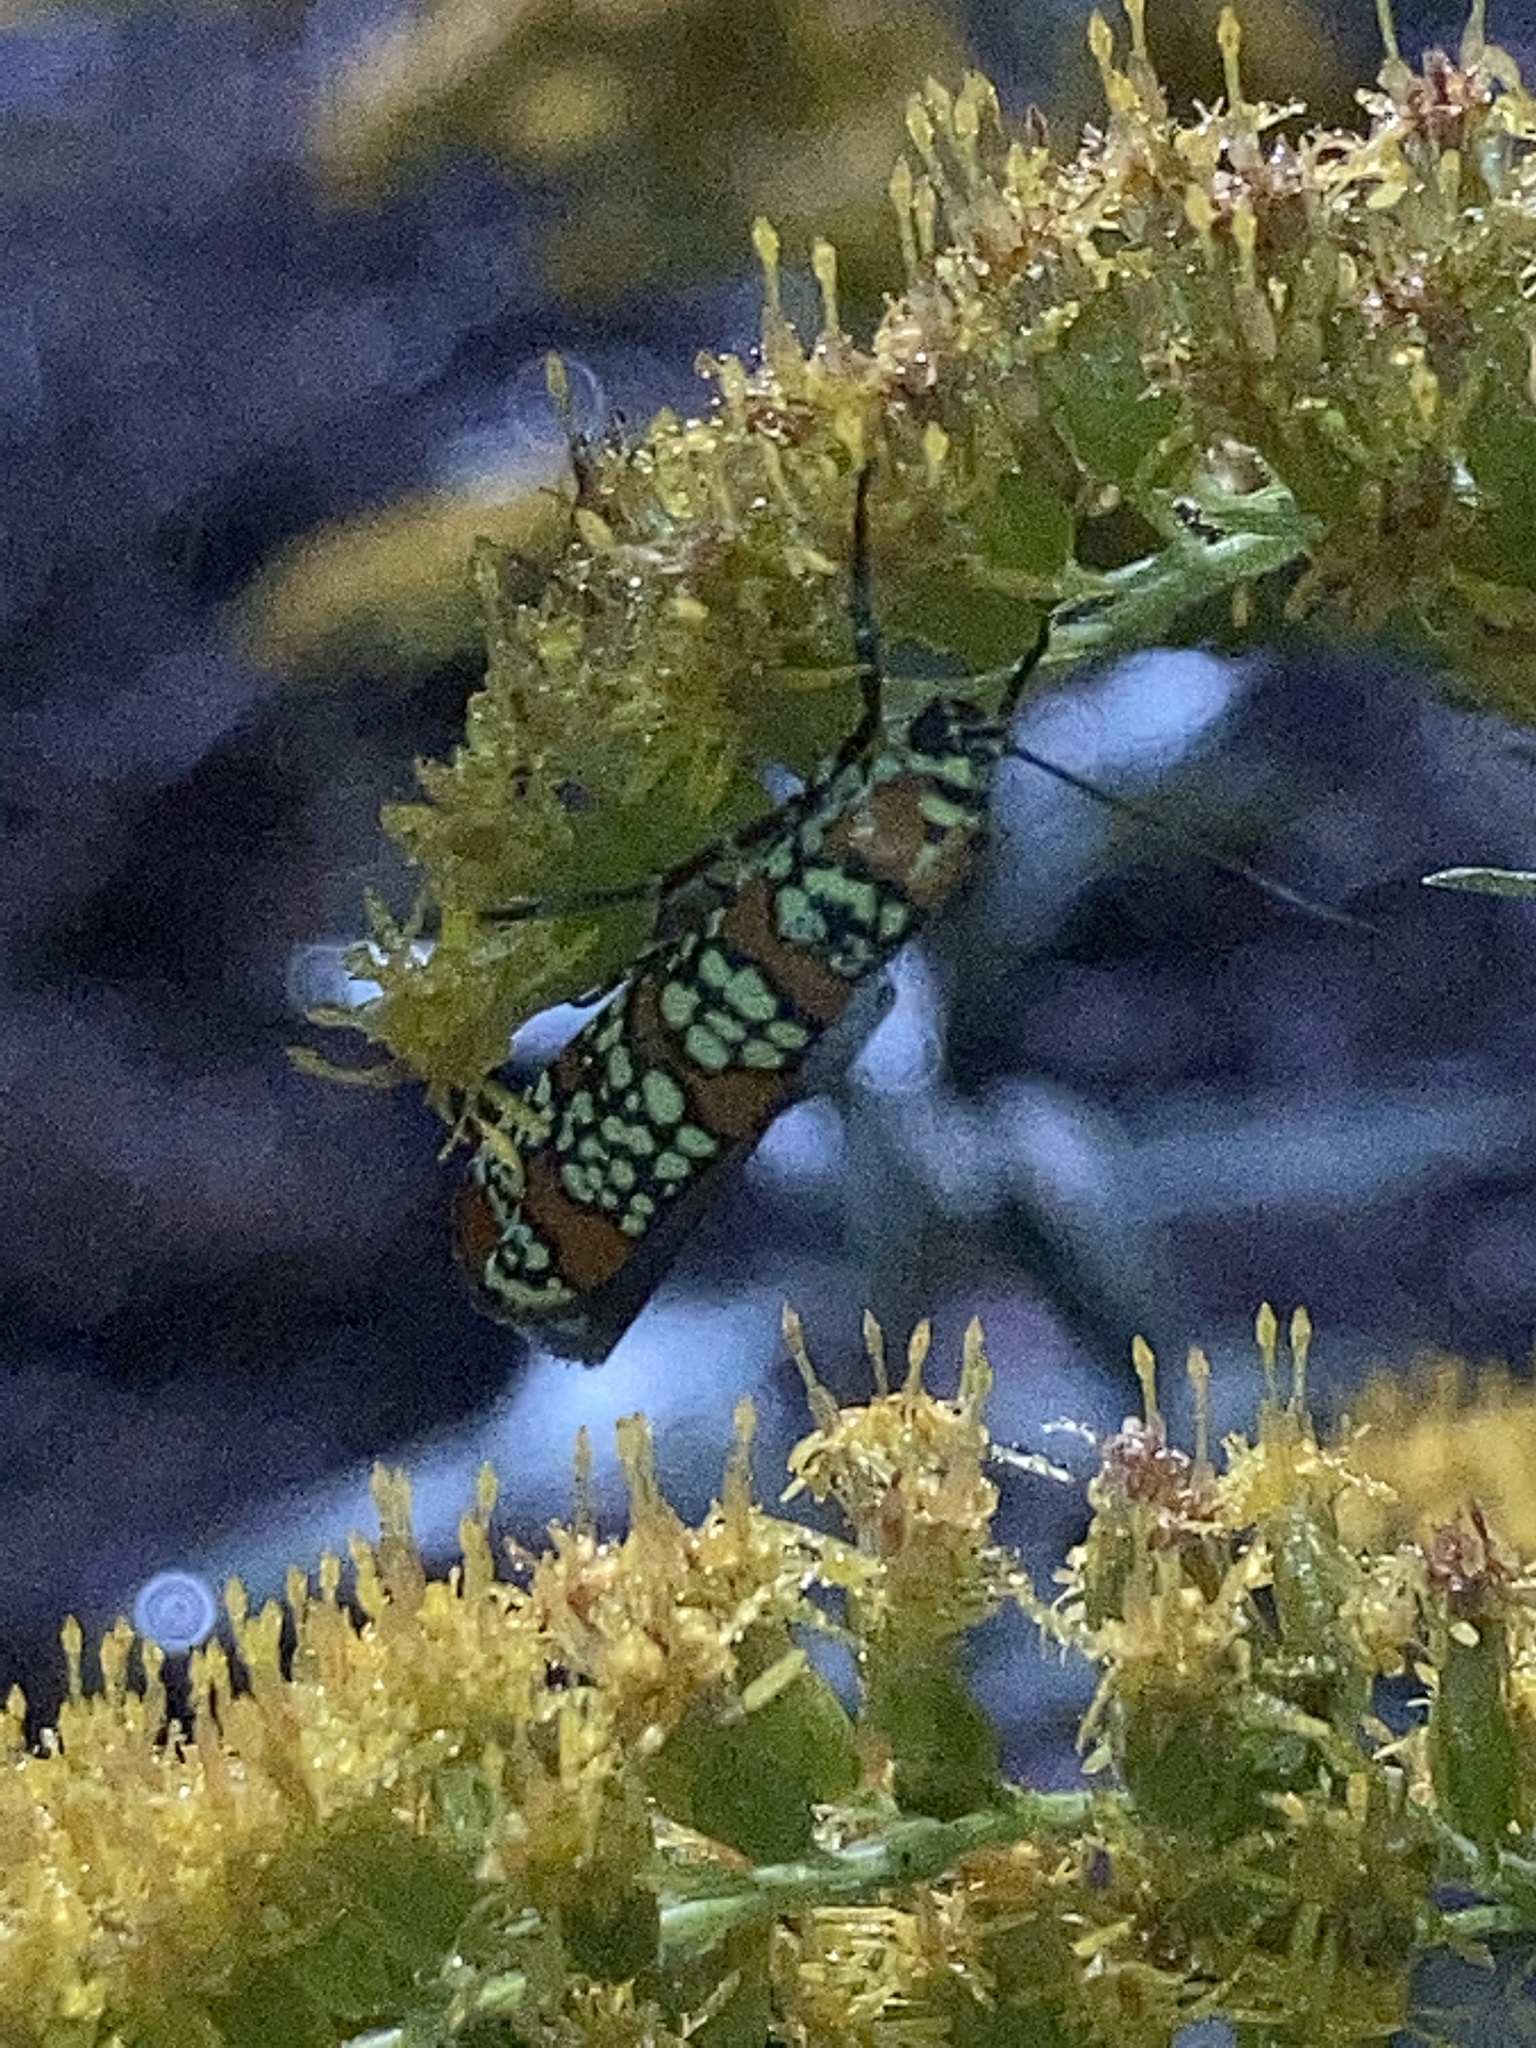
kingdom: Animalia
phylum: Arthropoda
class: Insecta
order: Lepidoptera
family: Attevidae
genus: Atteva
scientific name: Atteva punctella
